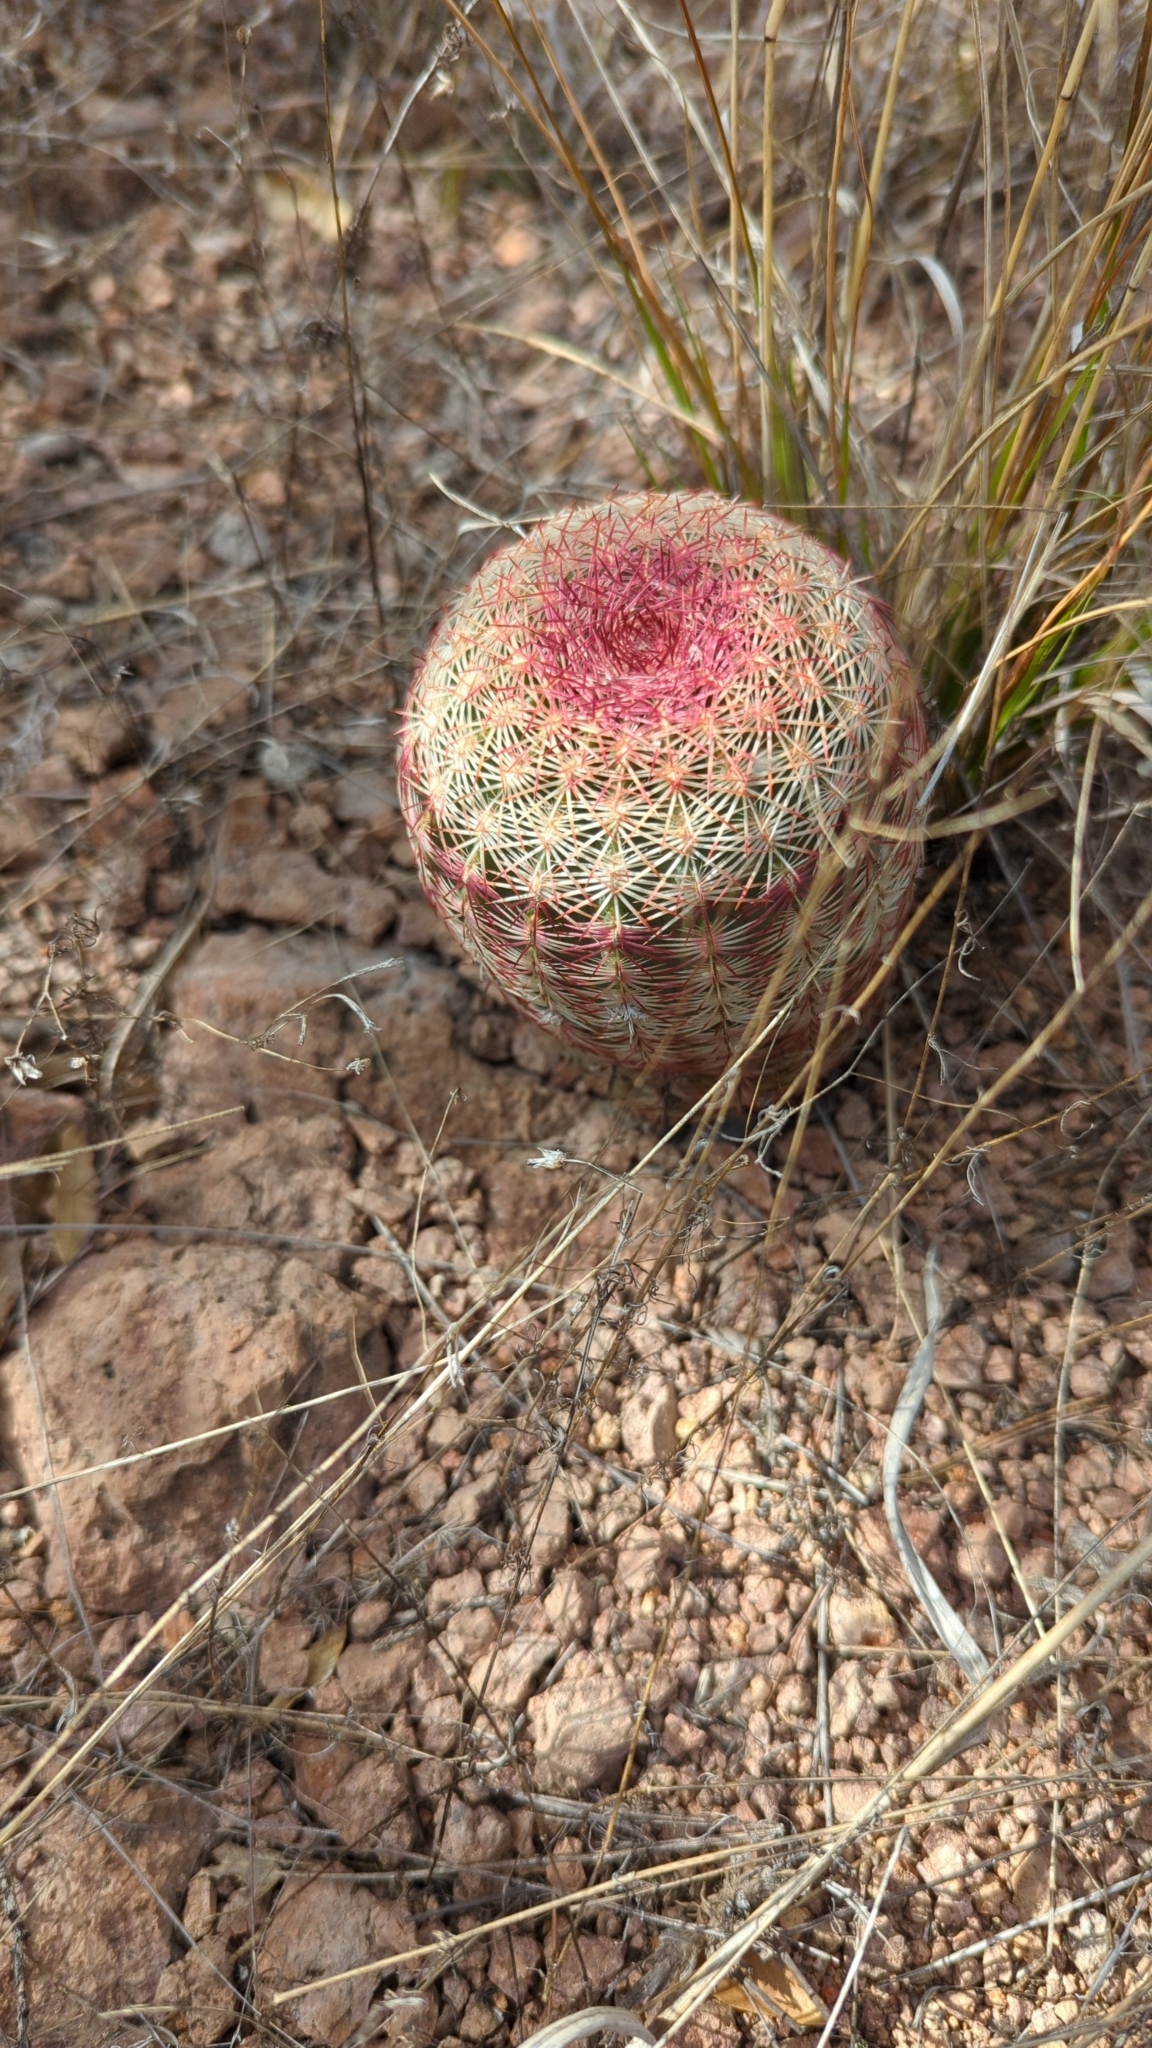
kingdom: Plantae
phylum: Tracheophyta
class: Magnoliopsida
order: Caryophyllales
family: Cactaceae
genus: Echinocereus
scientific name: Echinocereus rigidissimus
